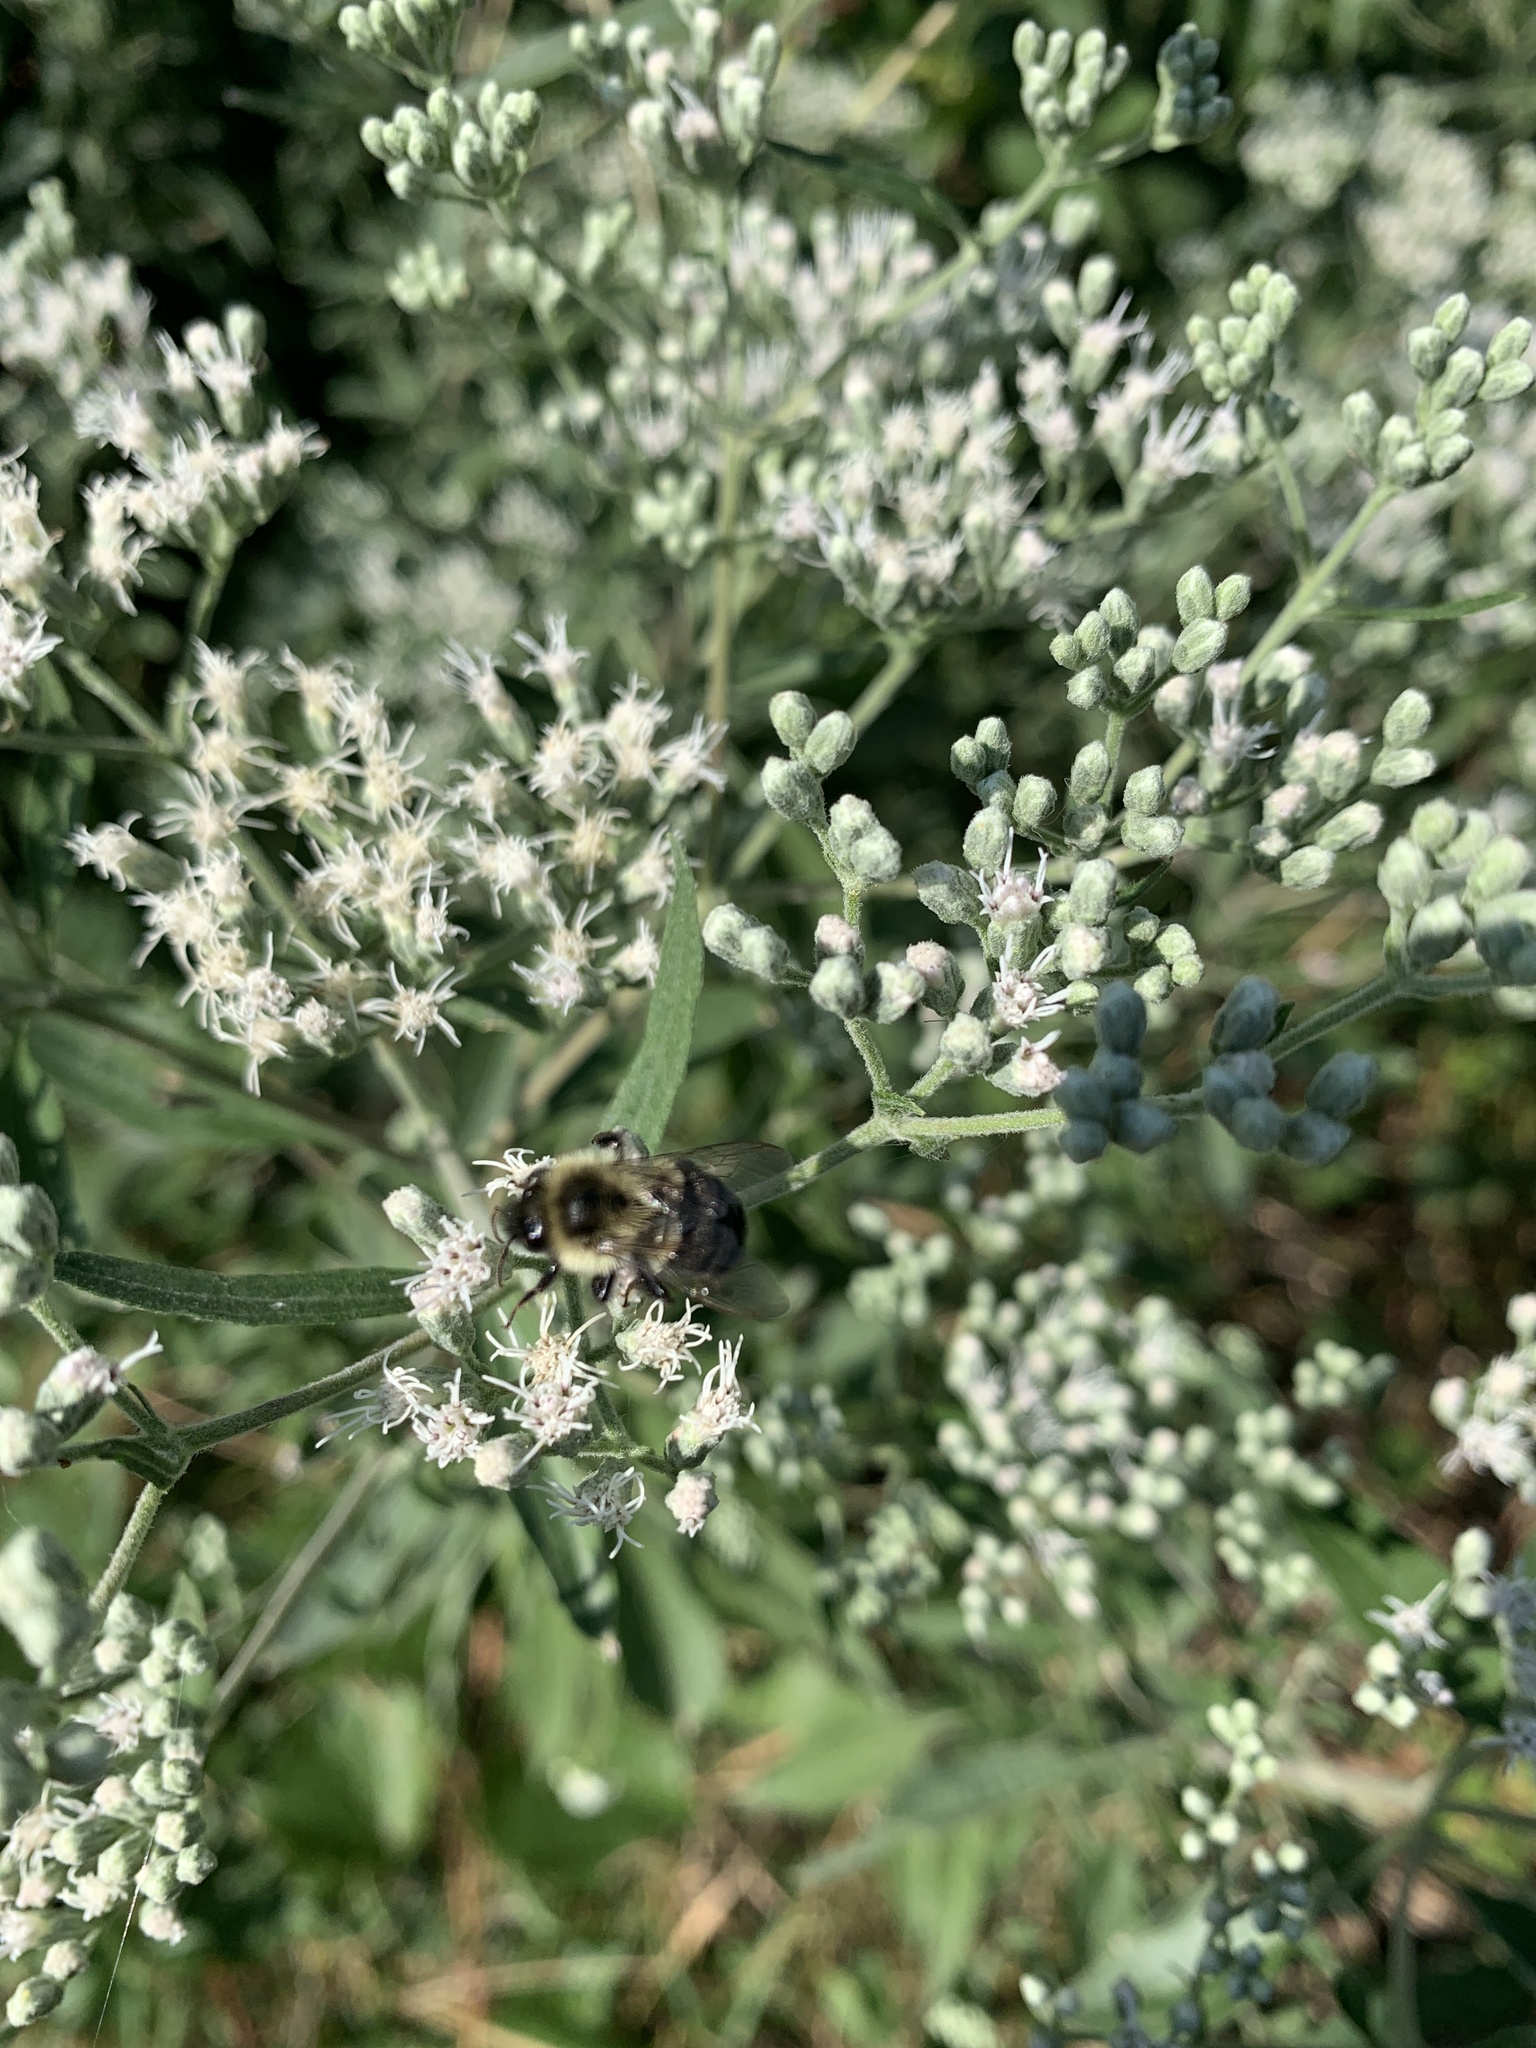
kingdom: Animalia
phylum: Arthropoda
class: Insecta
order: Hymenoptera
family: Apidae
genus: Bombus
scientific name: Bombus impatiens
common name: Common eastern bumble bee
